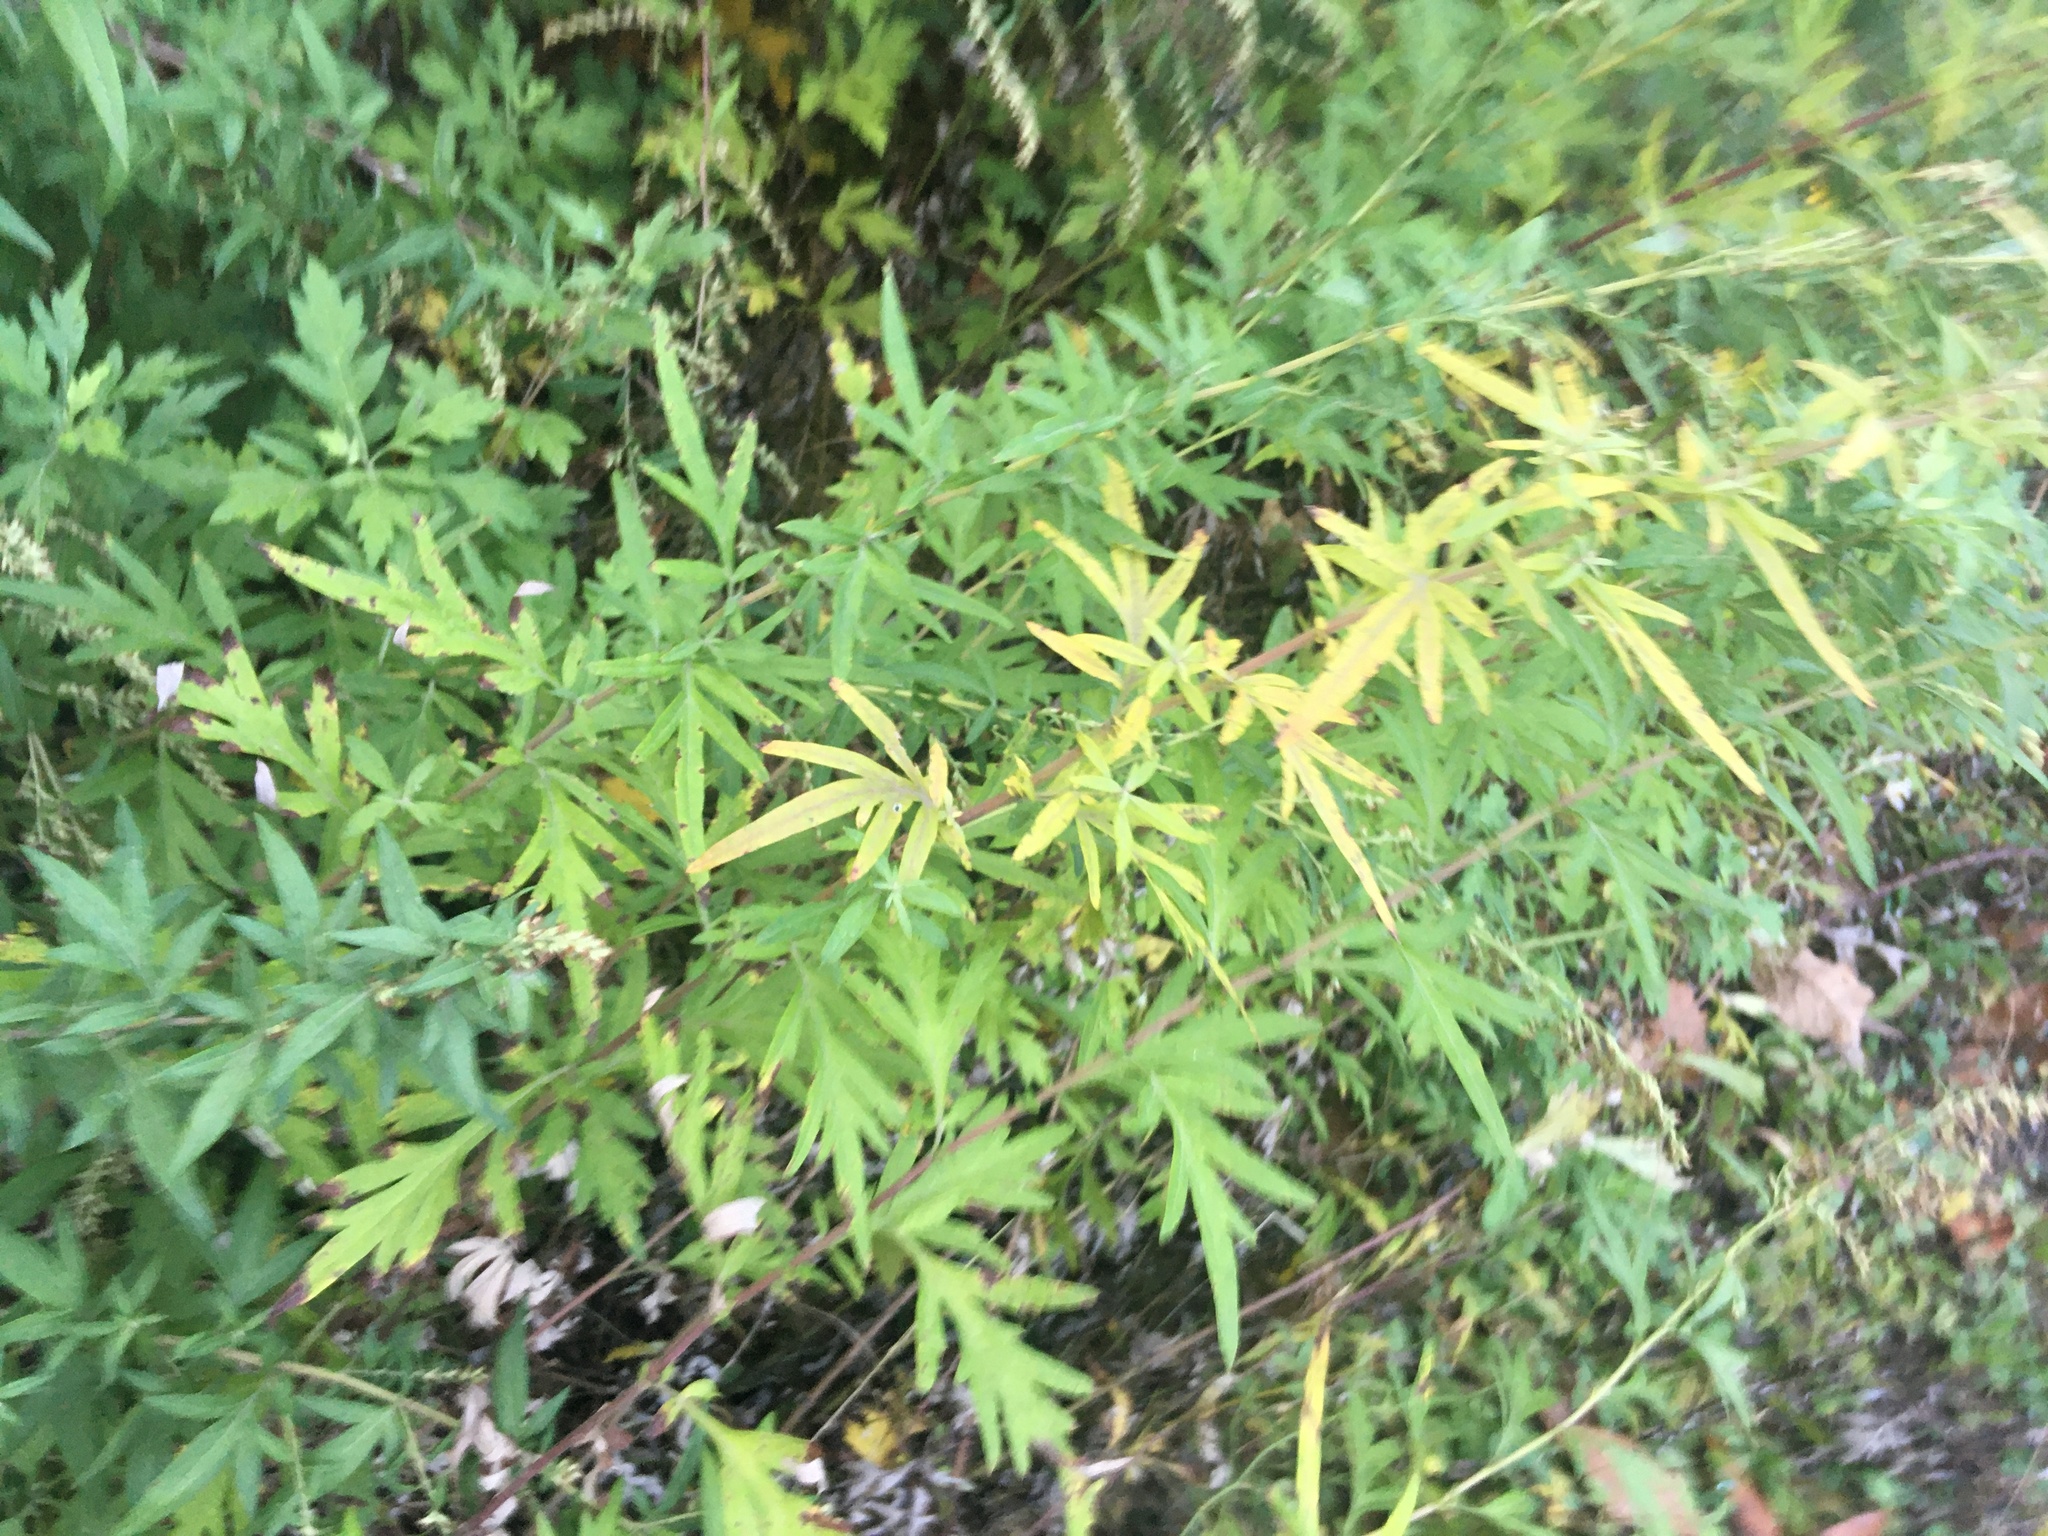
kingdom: Plantae
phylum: Tracheophyta
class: Magnoliopsida
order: Asterales
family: Asteraceae
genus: Artemisia
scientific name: Artemisia vulgaris
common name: Mugwort
